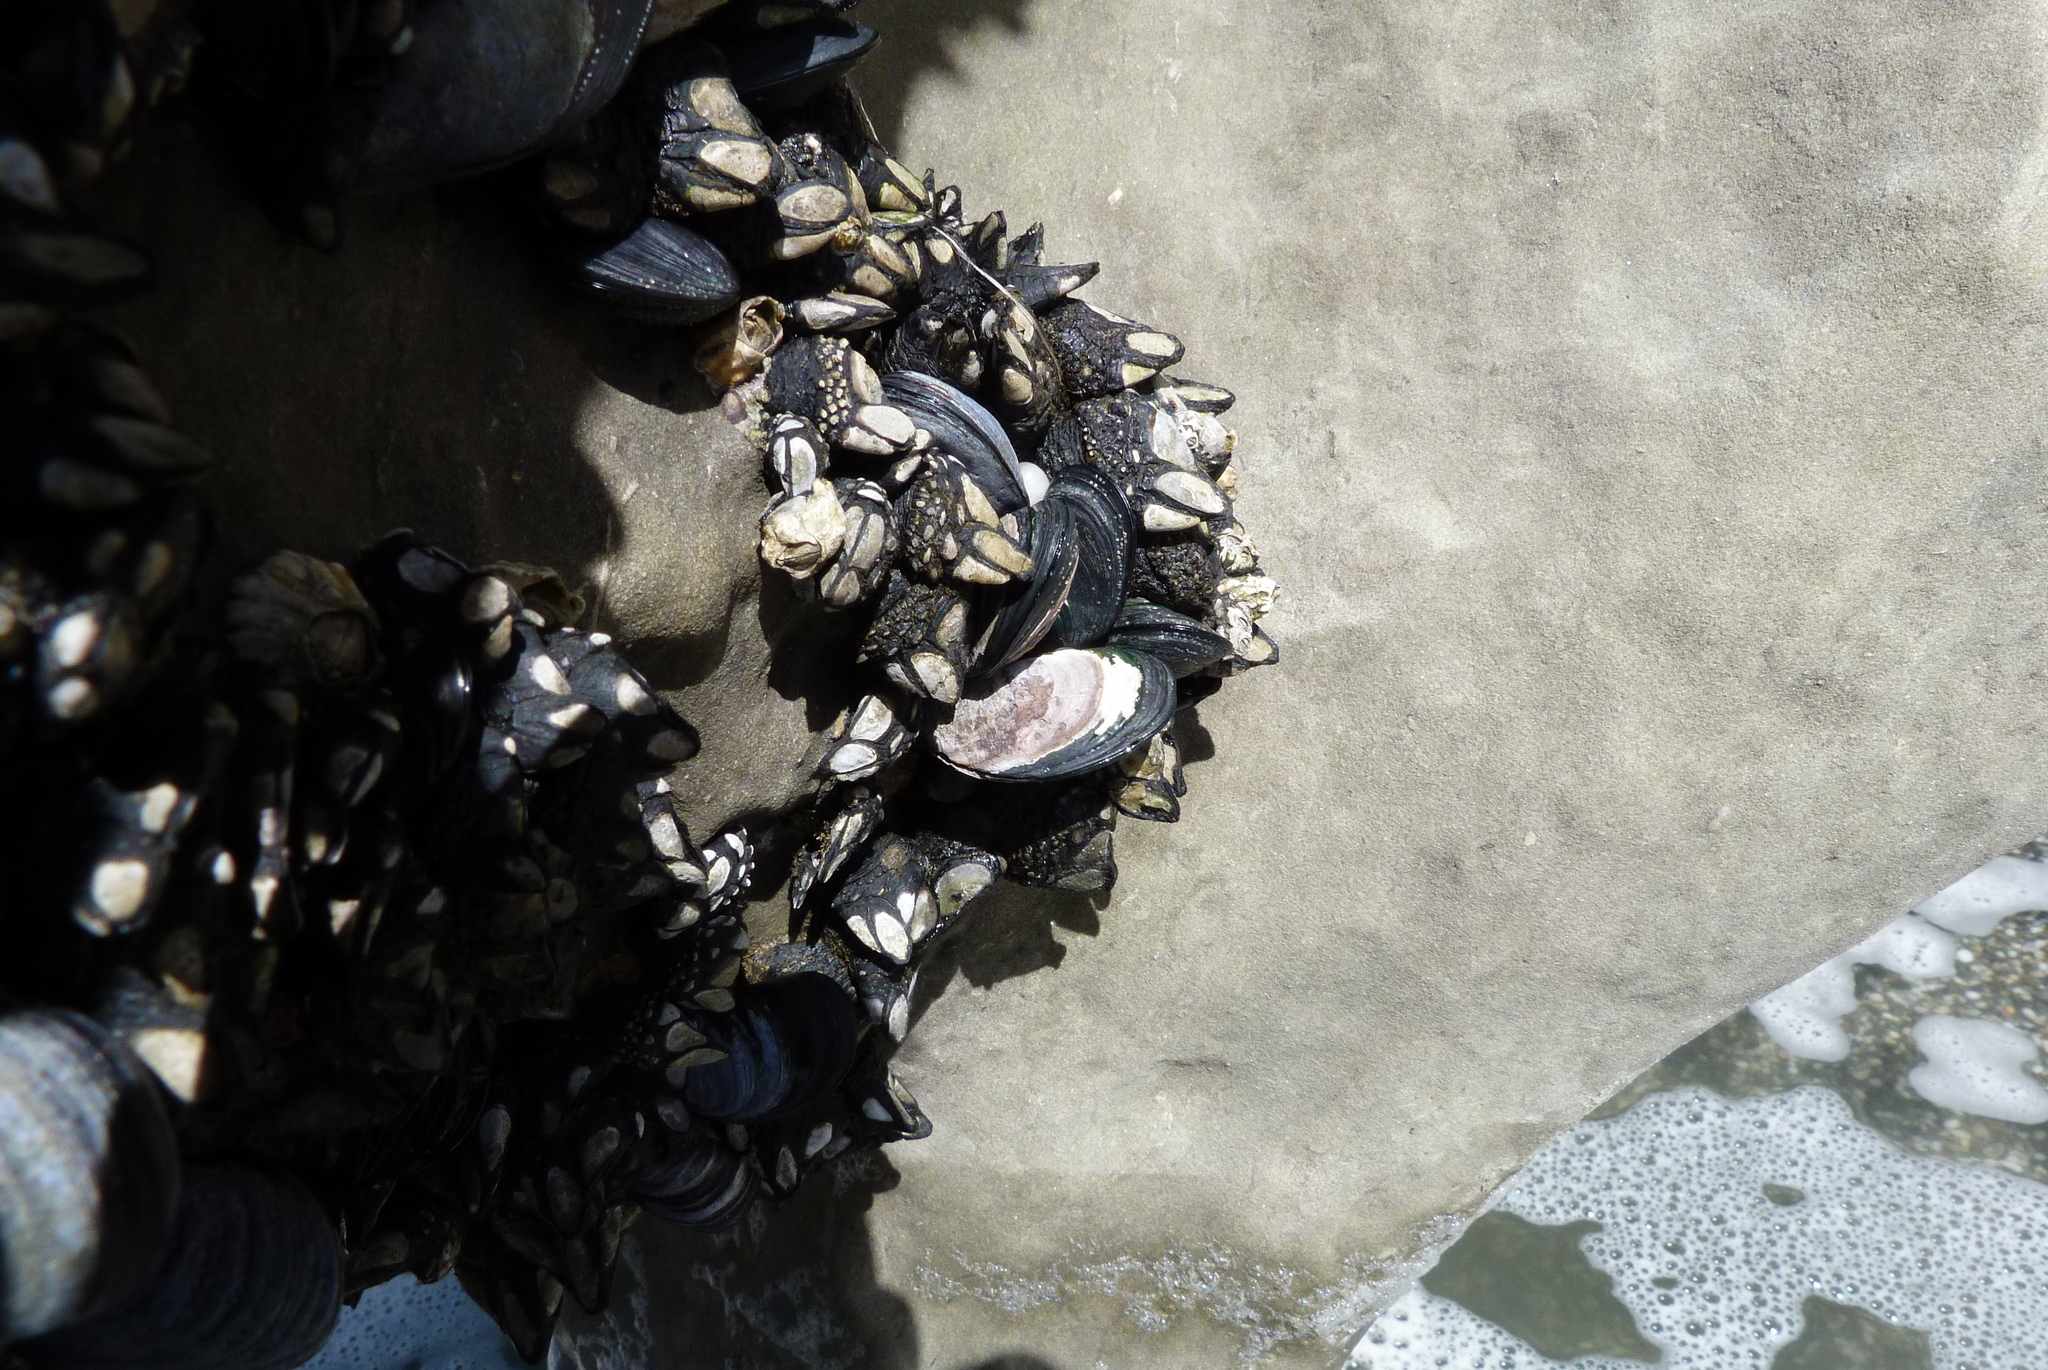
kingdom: Animalia
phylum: Mollusca
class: Bivalvia
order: Mytilida
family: Mytilidae
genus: Xenostrobus
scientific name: Xenostrobus neozelanicus
